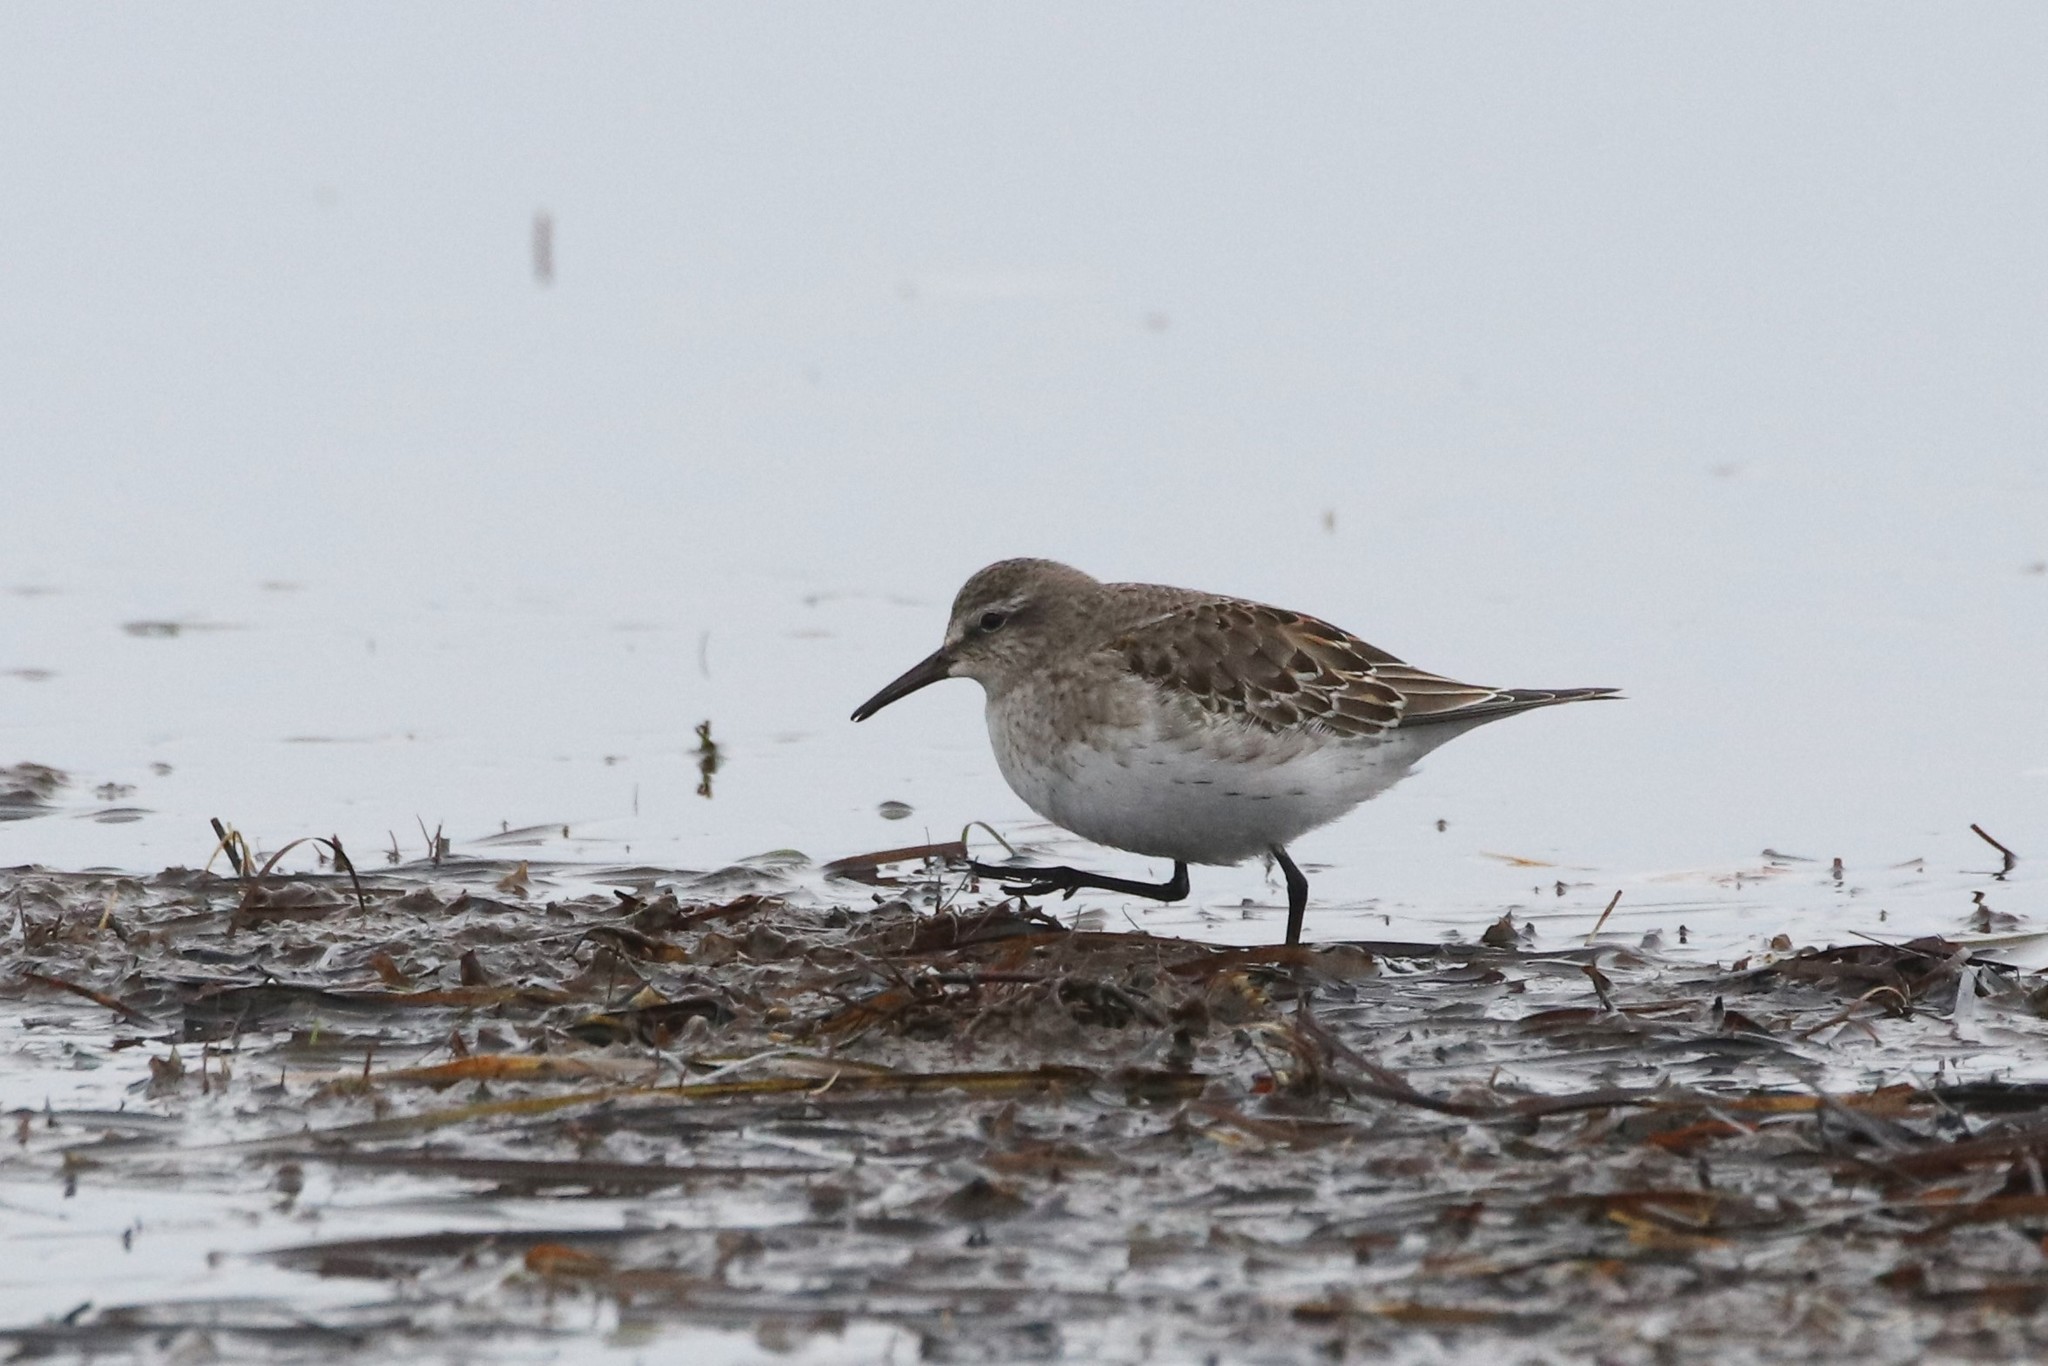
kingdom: Animalia
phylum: Chordata
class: Aves
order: Charadriiformes
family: Scolopacidae
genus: Calidris
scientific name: Calidris fuscicollis
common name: White-rumped sandpiper
